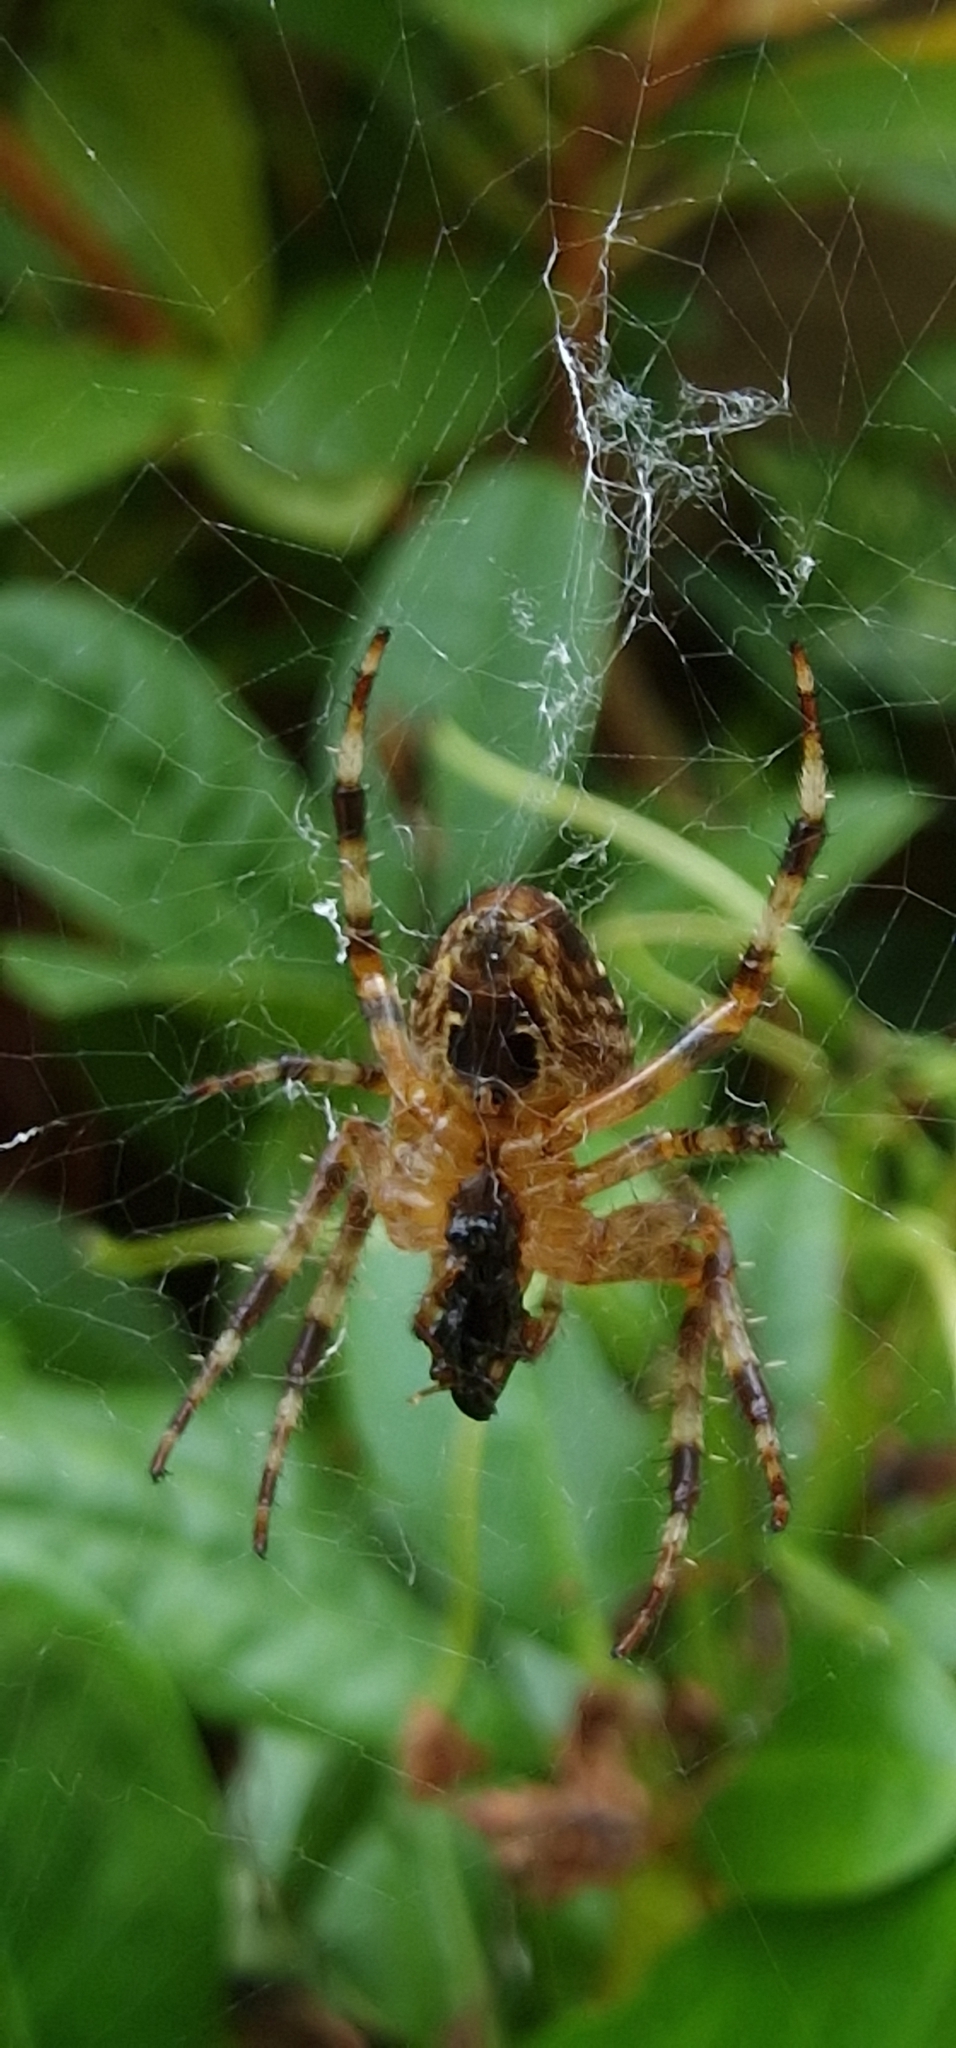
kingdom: Animalia
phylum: Arthropoda
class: Arachnida
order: Araneae
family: Araneidae
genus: Araneus
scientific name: Araneus diadematus
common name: Cross orbweaver
